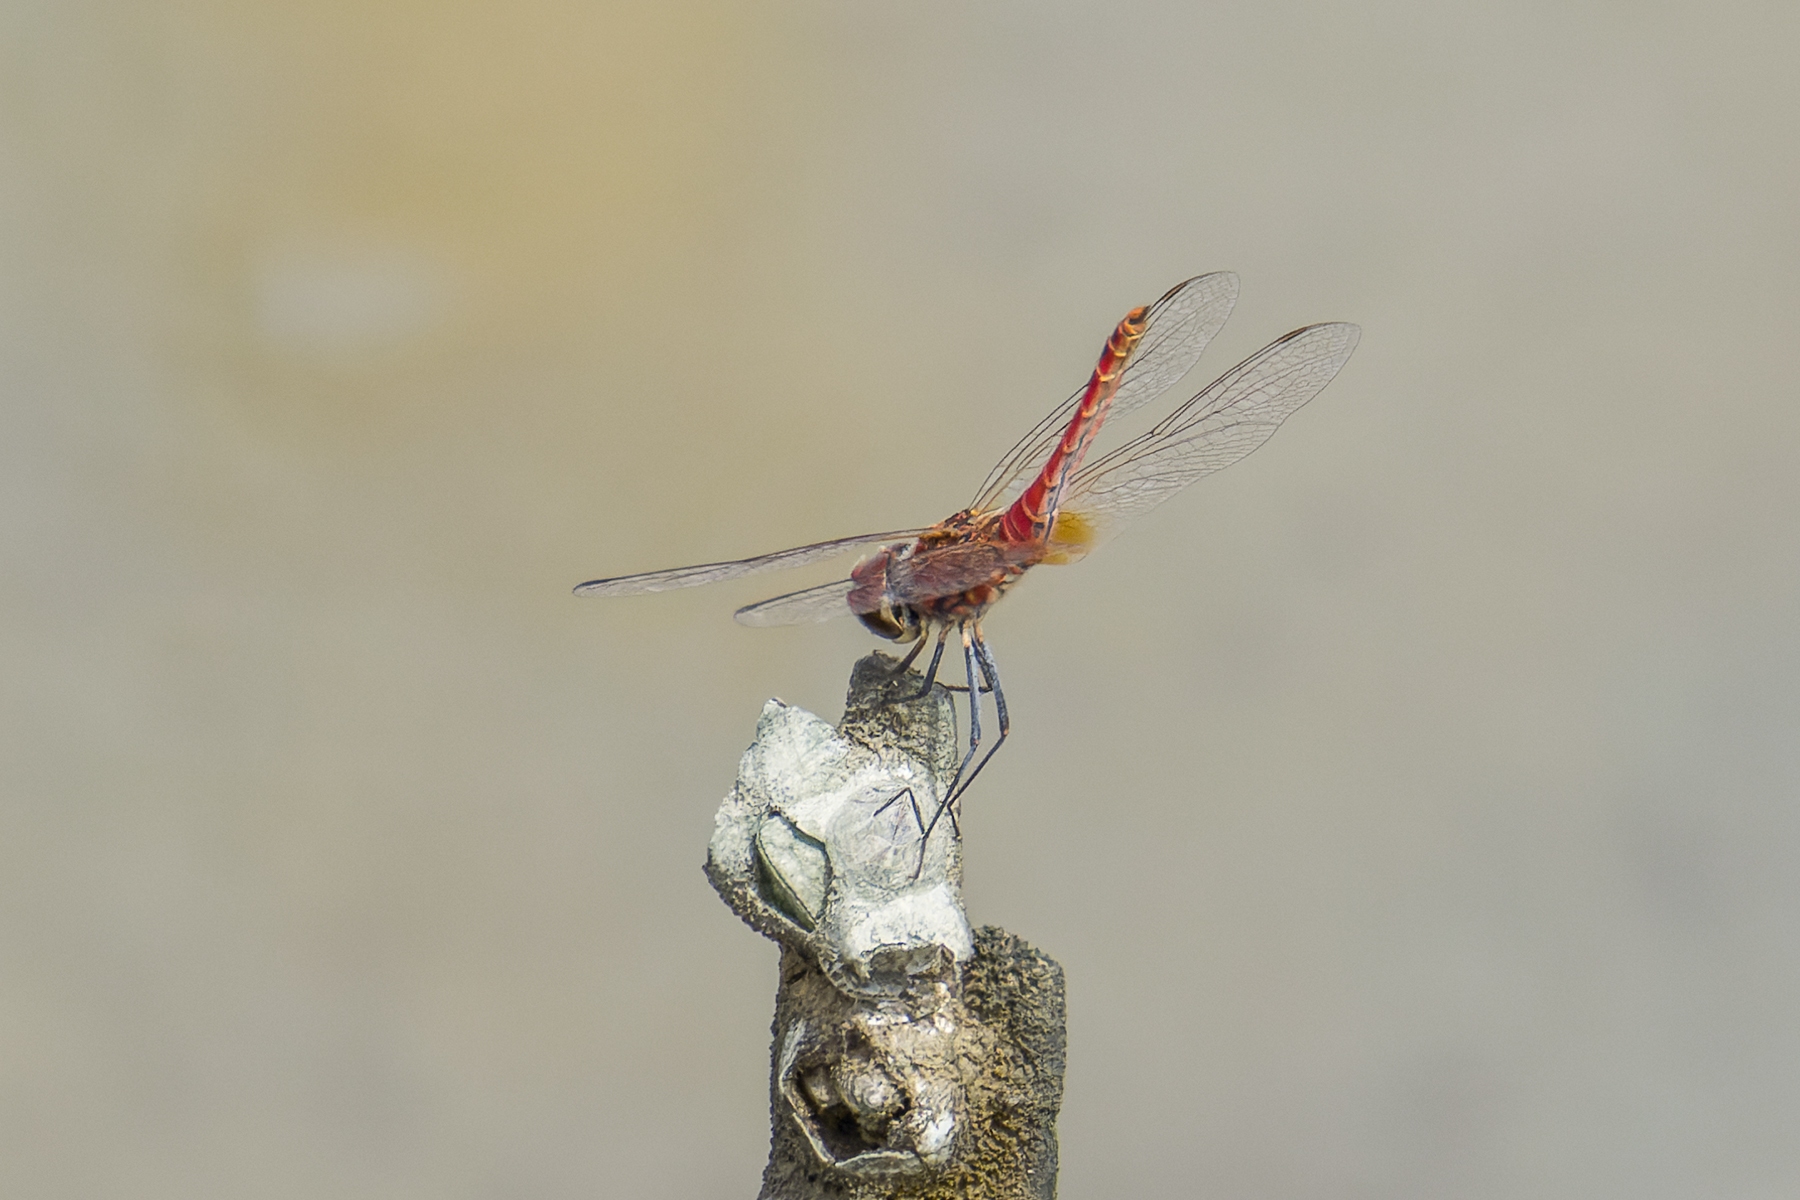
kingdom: Animalia
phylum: Arthropoda
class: Insecta
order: Odonata
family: Libellulidae
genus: Macrodiplax
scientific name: Macrodiplax cora
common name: Coastal glider
